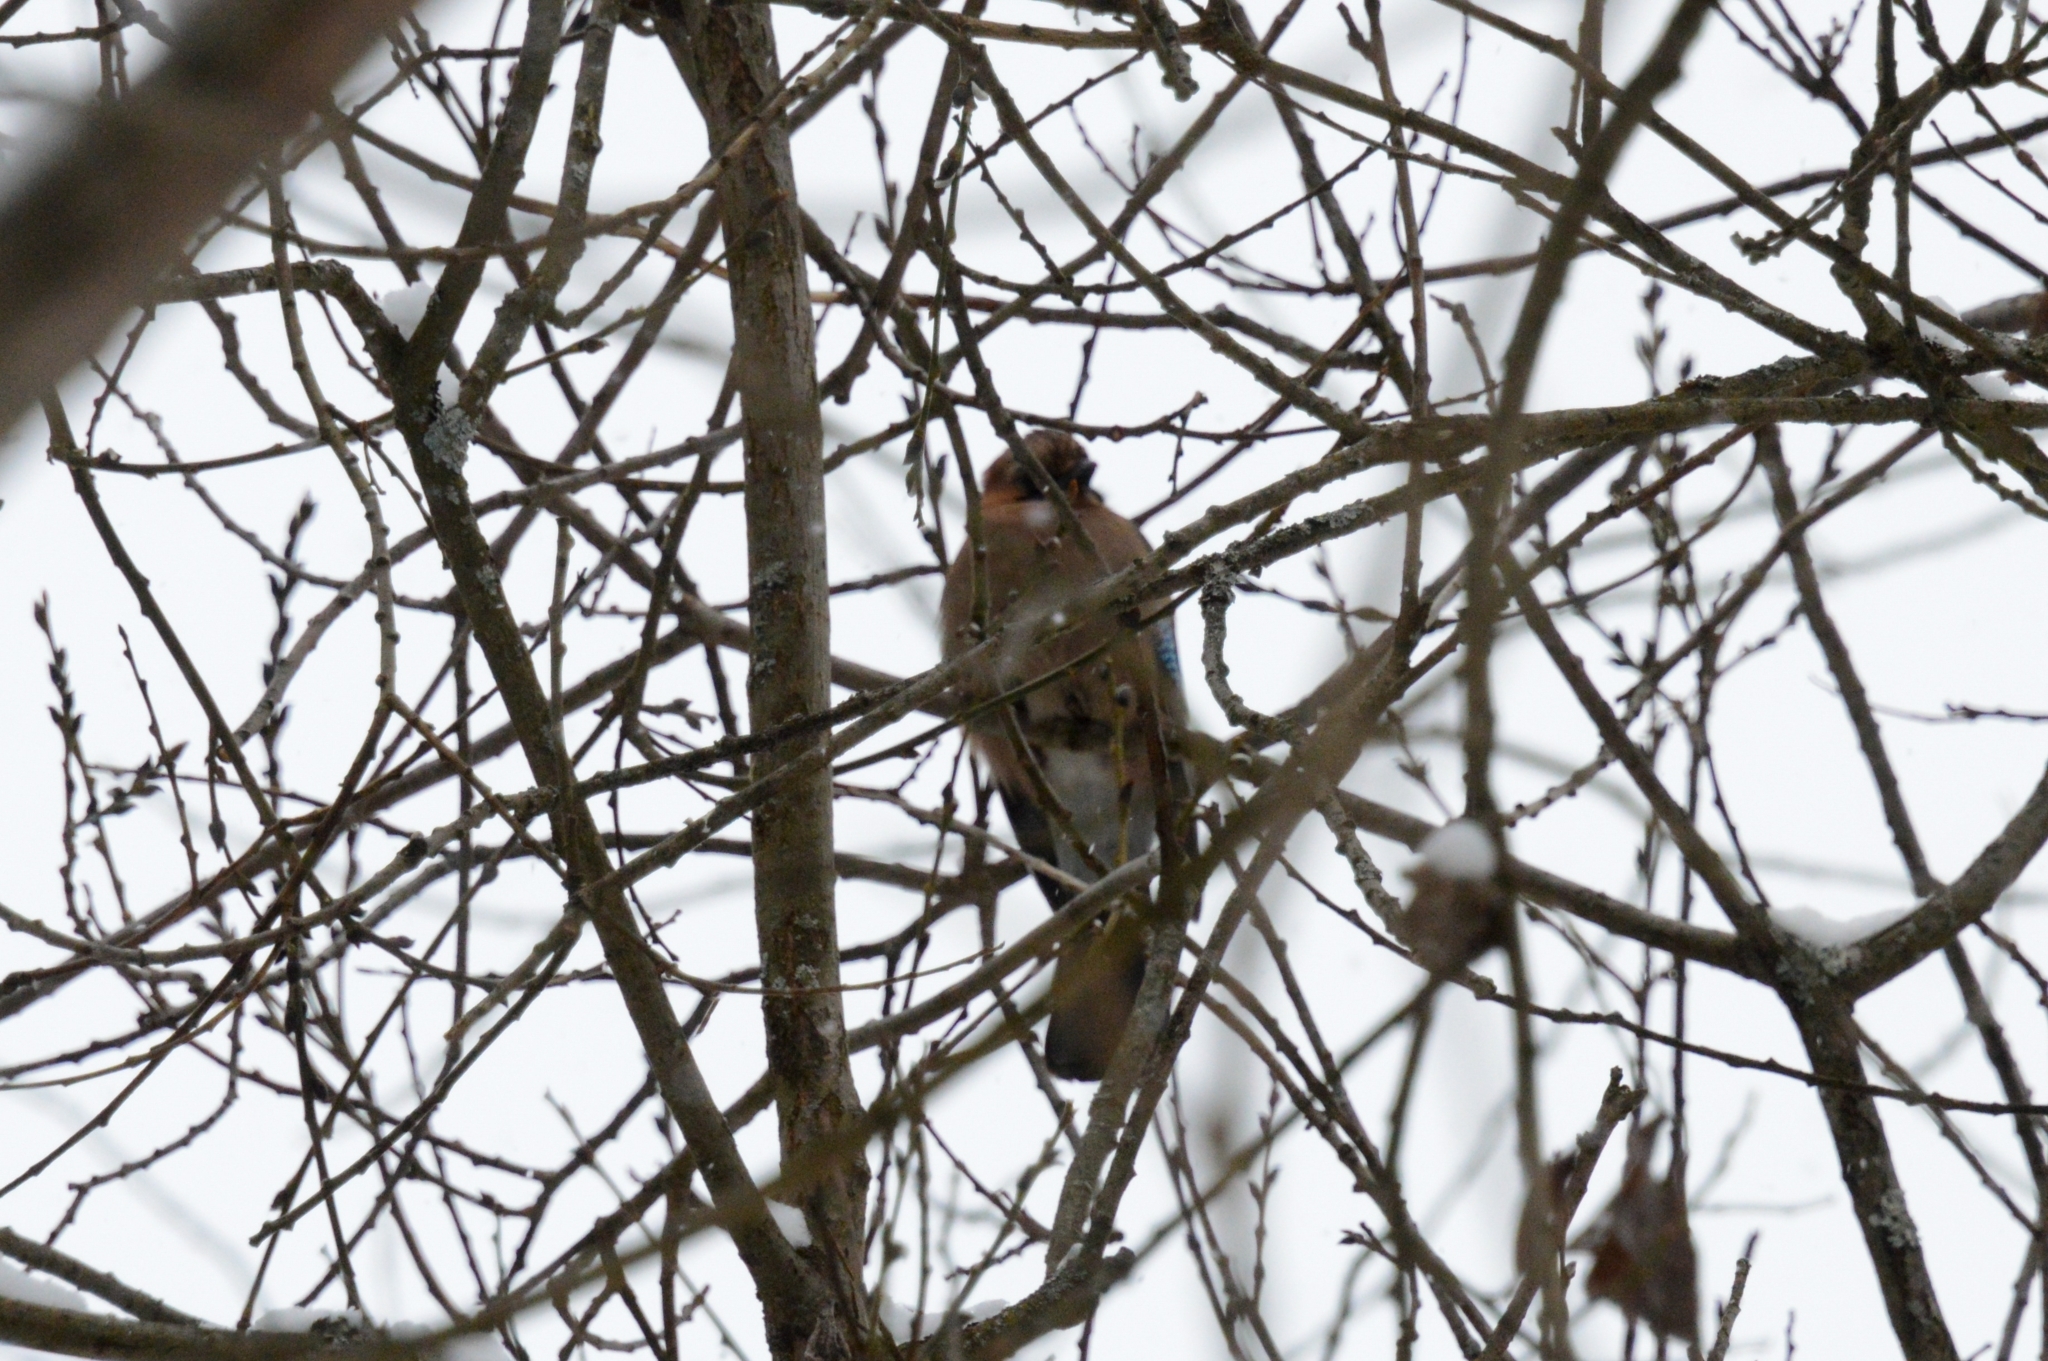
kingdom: Animalia
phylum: Chordata
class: Aves
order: Passeriformes
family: Corvidae
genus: Garrulus
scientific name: Garrulus glandarius
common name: Eurasian jay
